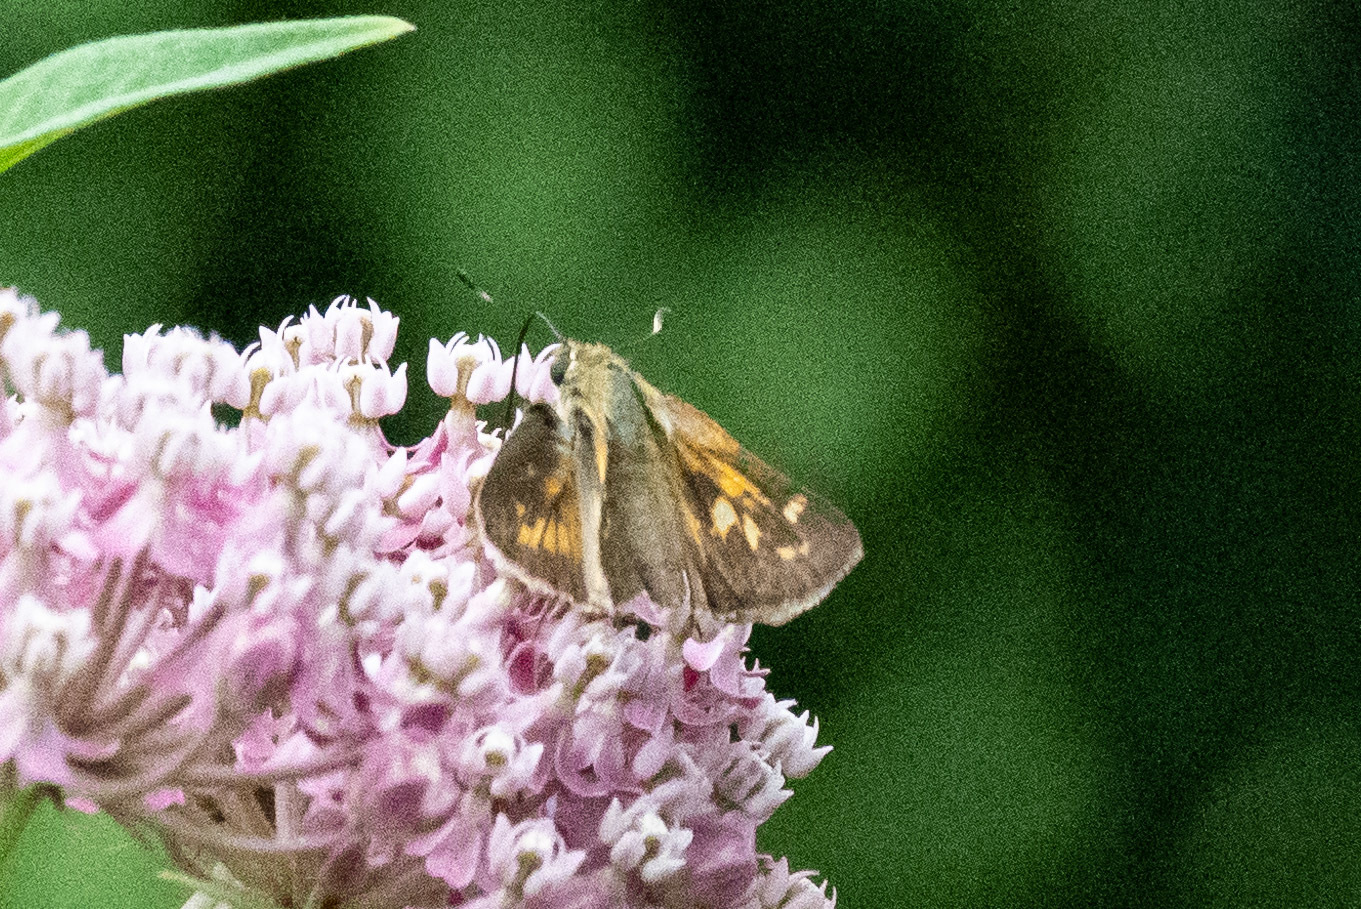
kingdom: Animalia
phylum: Arthropoda
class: Insecta
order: Lepidoptera
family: Hesperiidae
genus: Atalopedes
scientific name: Atalopedes
